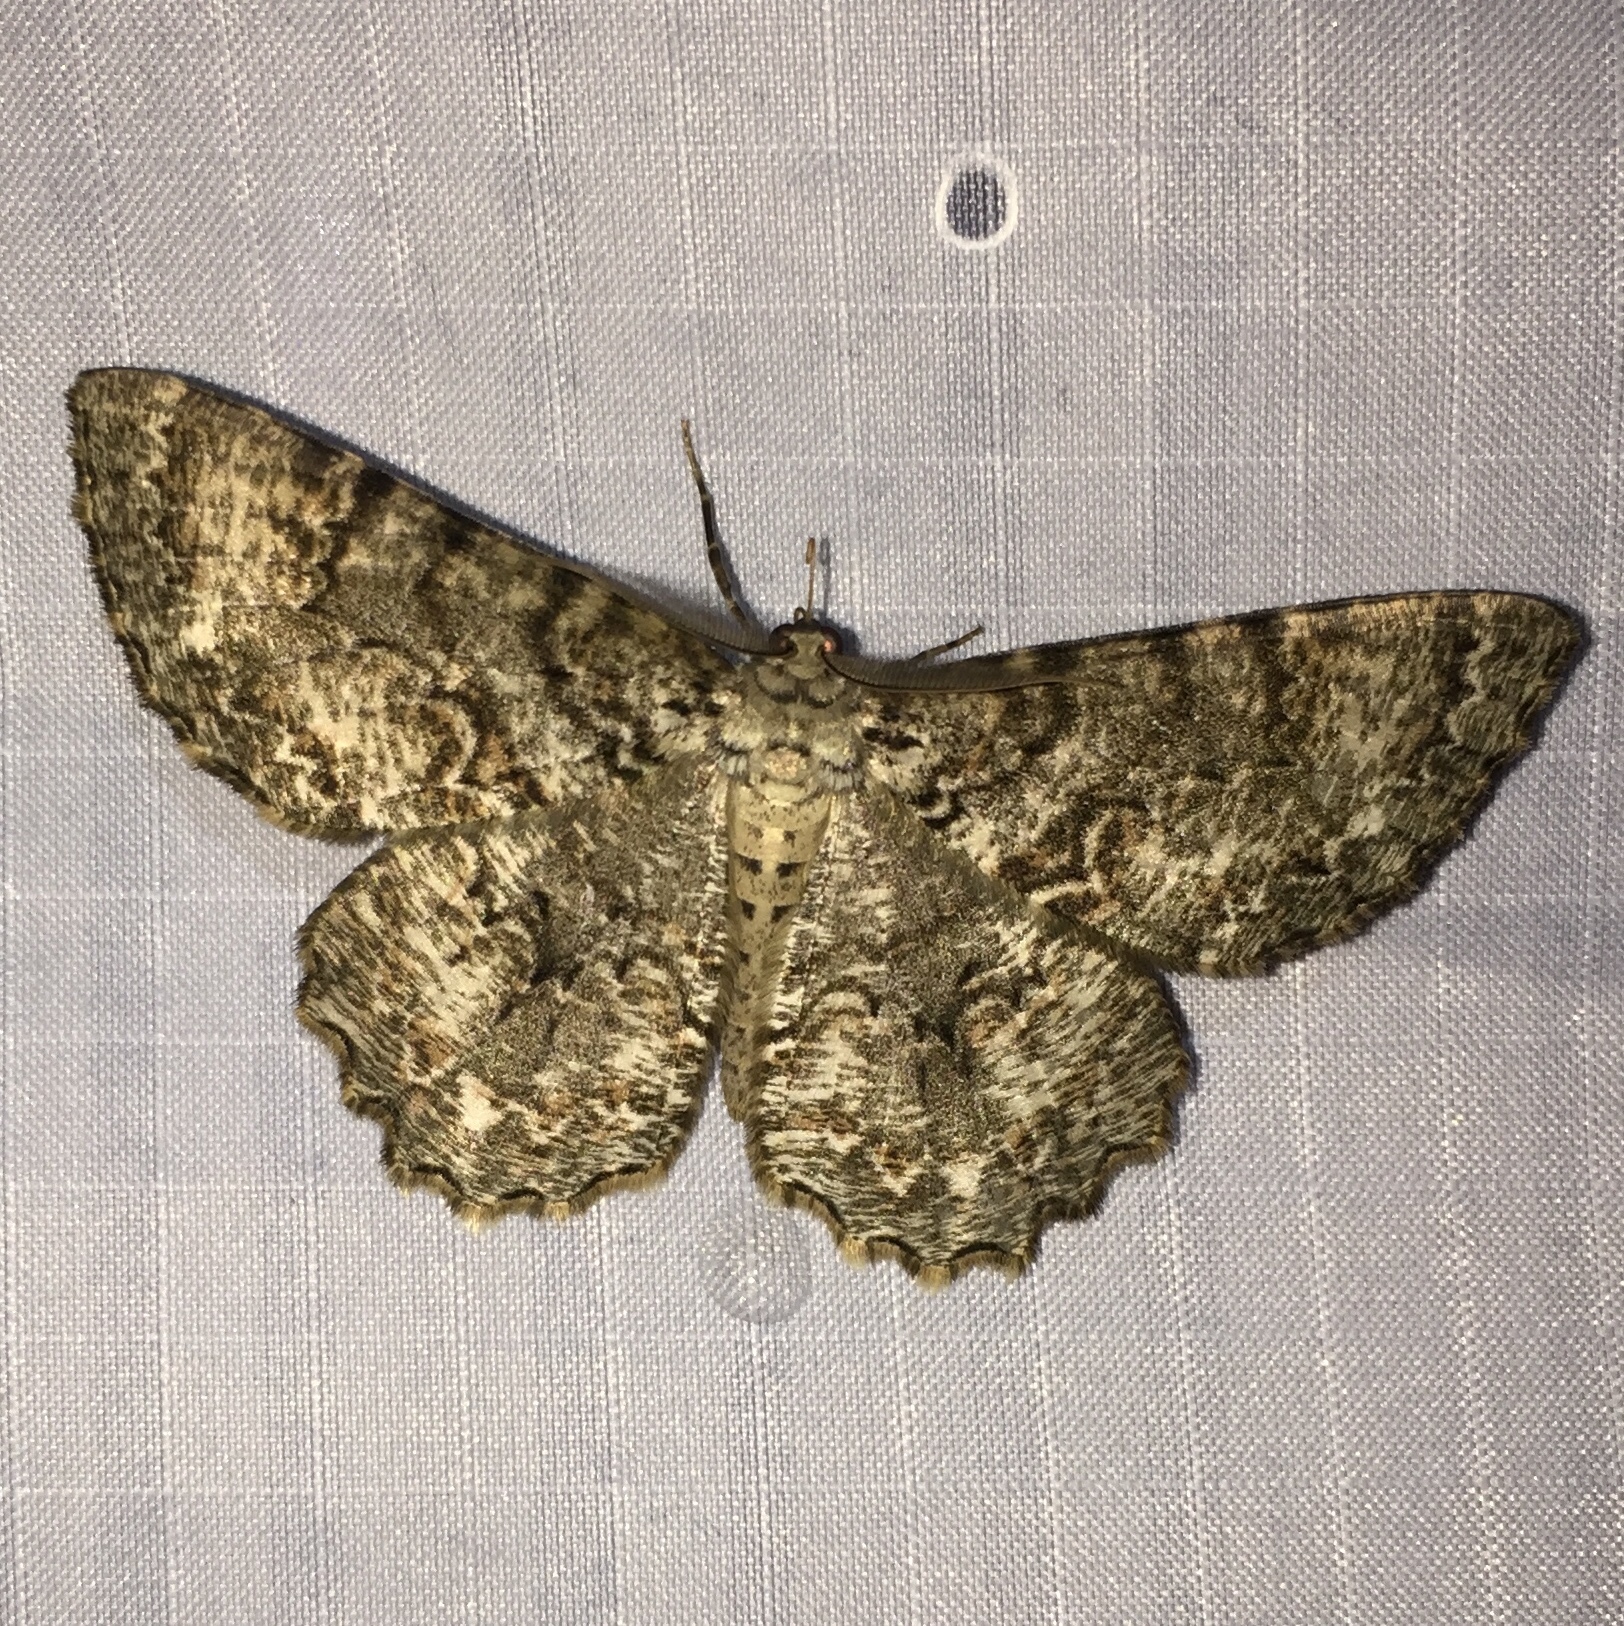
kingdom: Animalia
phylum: Arthropoda
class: Insecta
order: Lepidoptera
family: Geometridae
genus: Epimecis
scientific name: Epimecis hortaria
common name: Tulip-tree beauty
